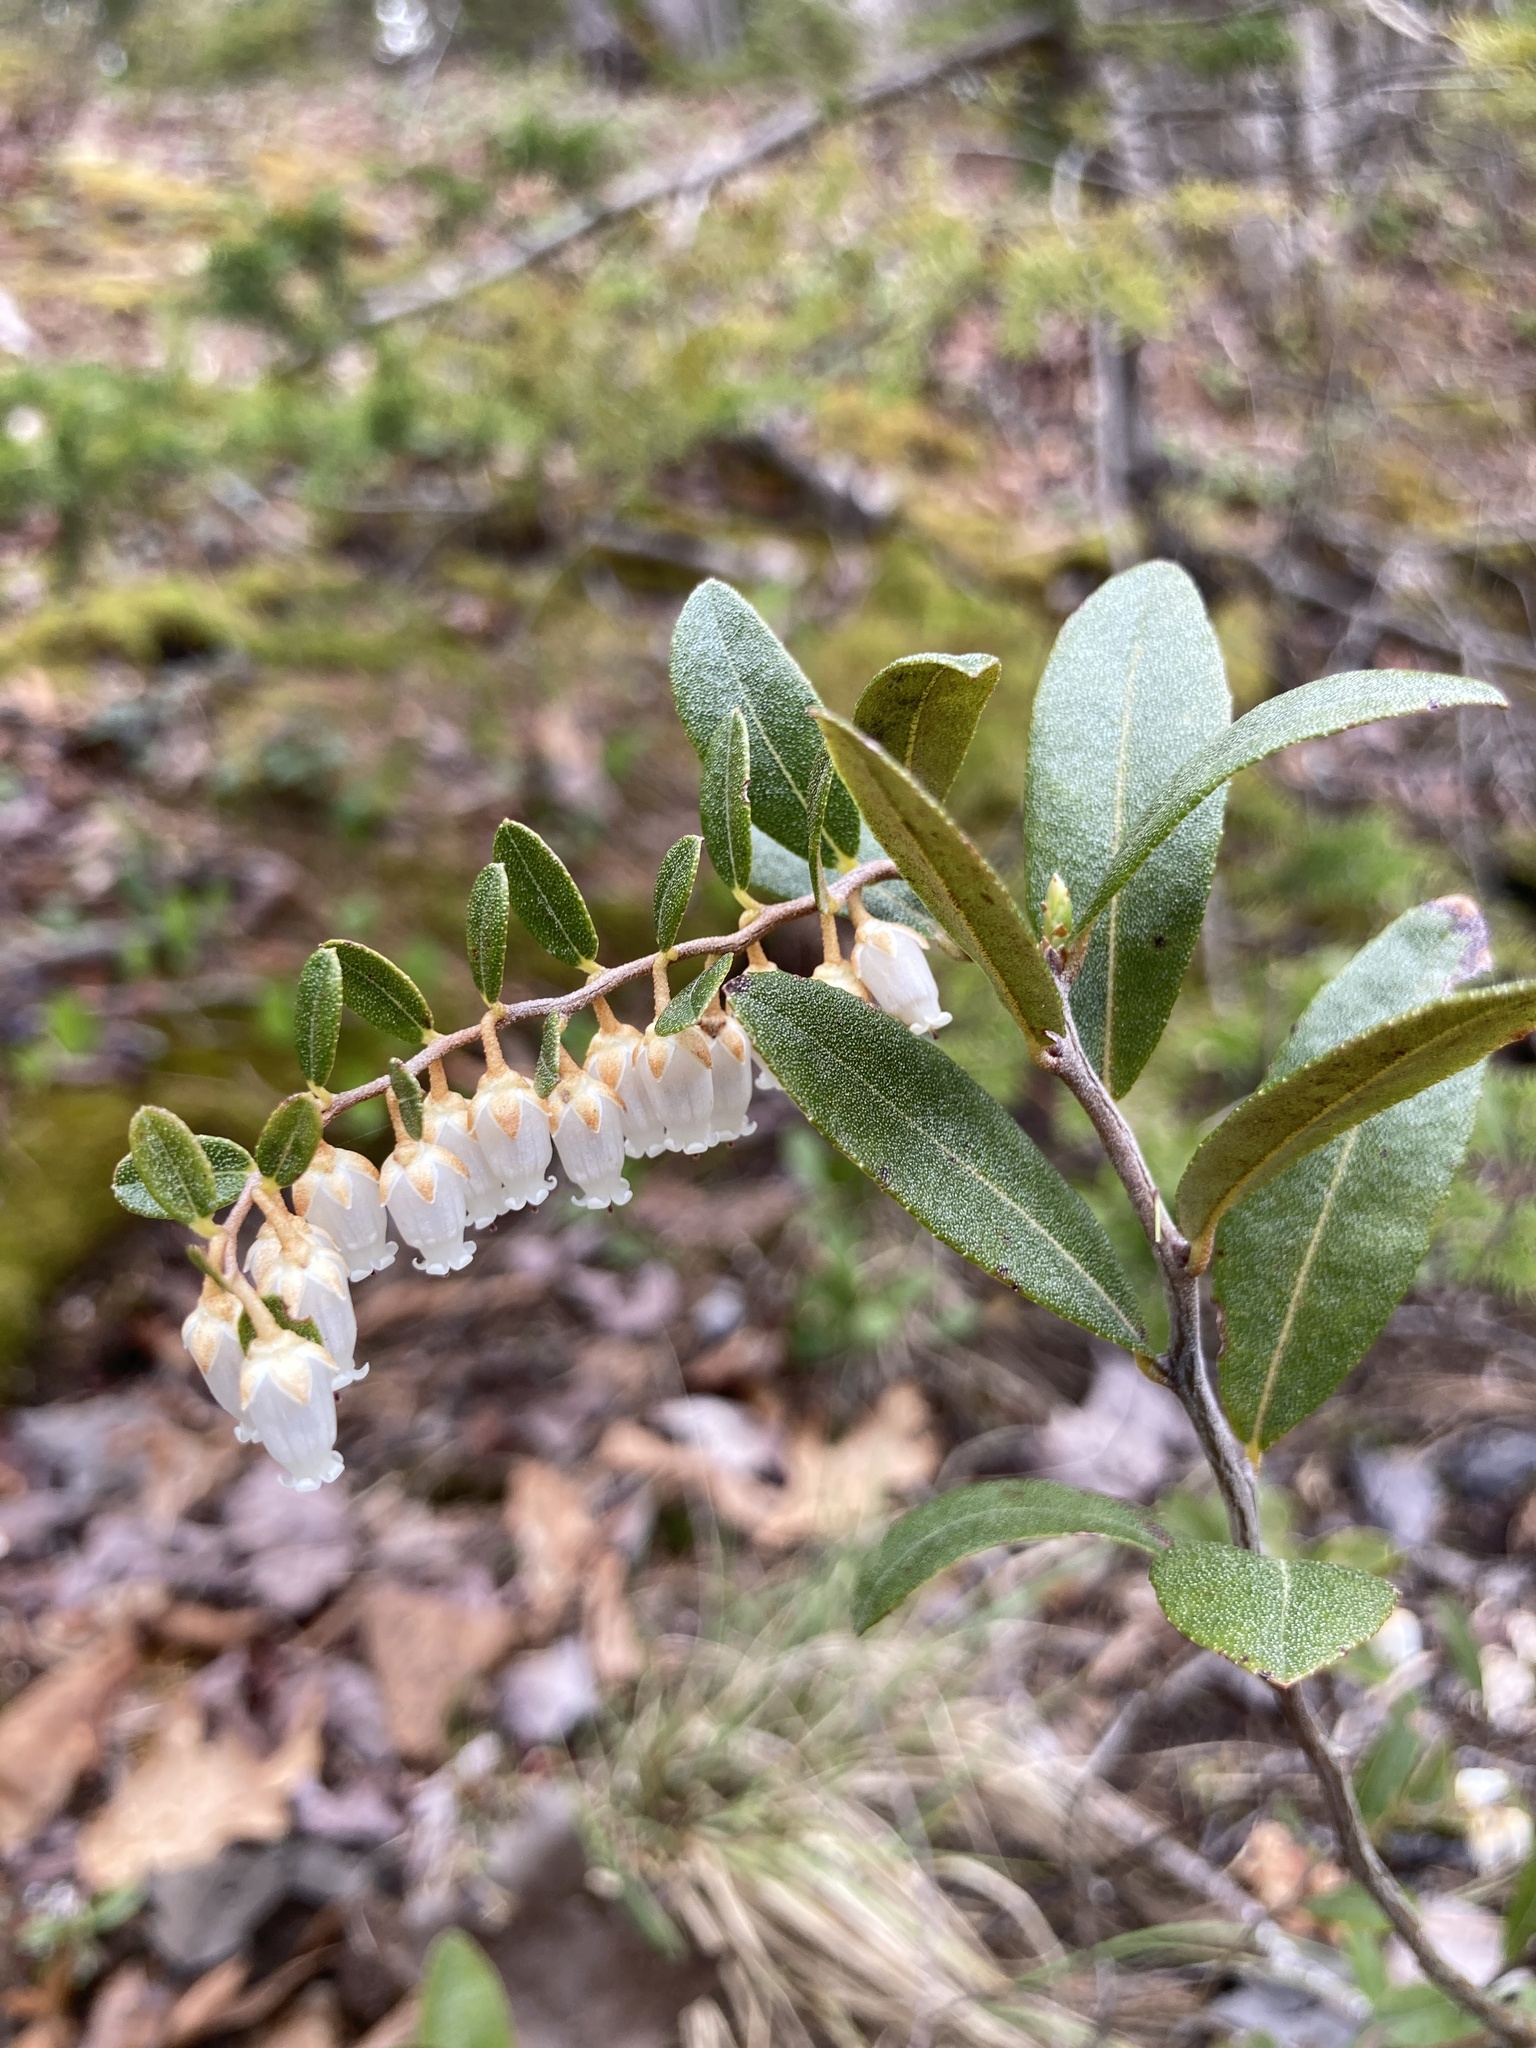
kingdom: Plantae
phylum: Tracheophyta
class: Magnoliopsida
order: Ericales
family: Ericaceae
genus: Chamaedaphne
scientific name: Chamaedaphne calyculata
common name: Leatherleaf
